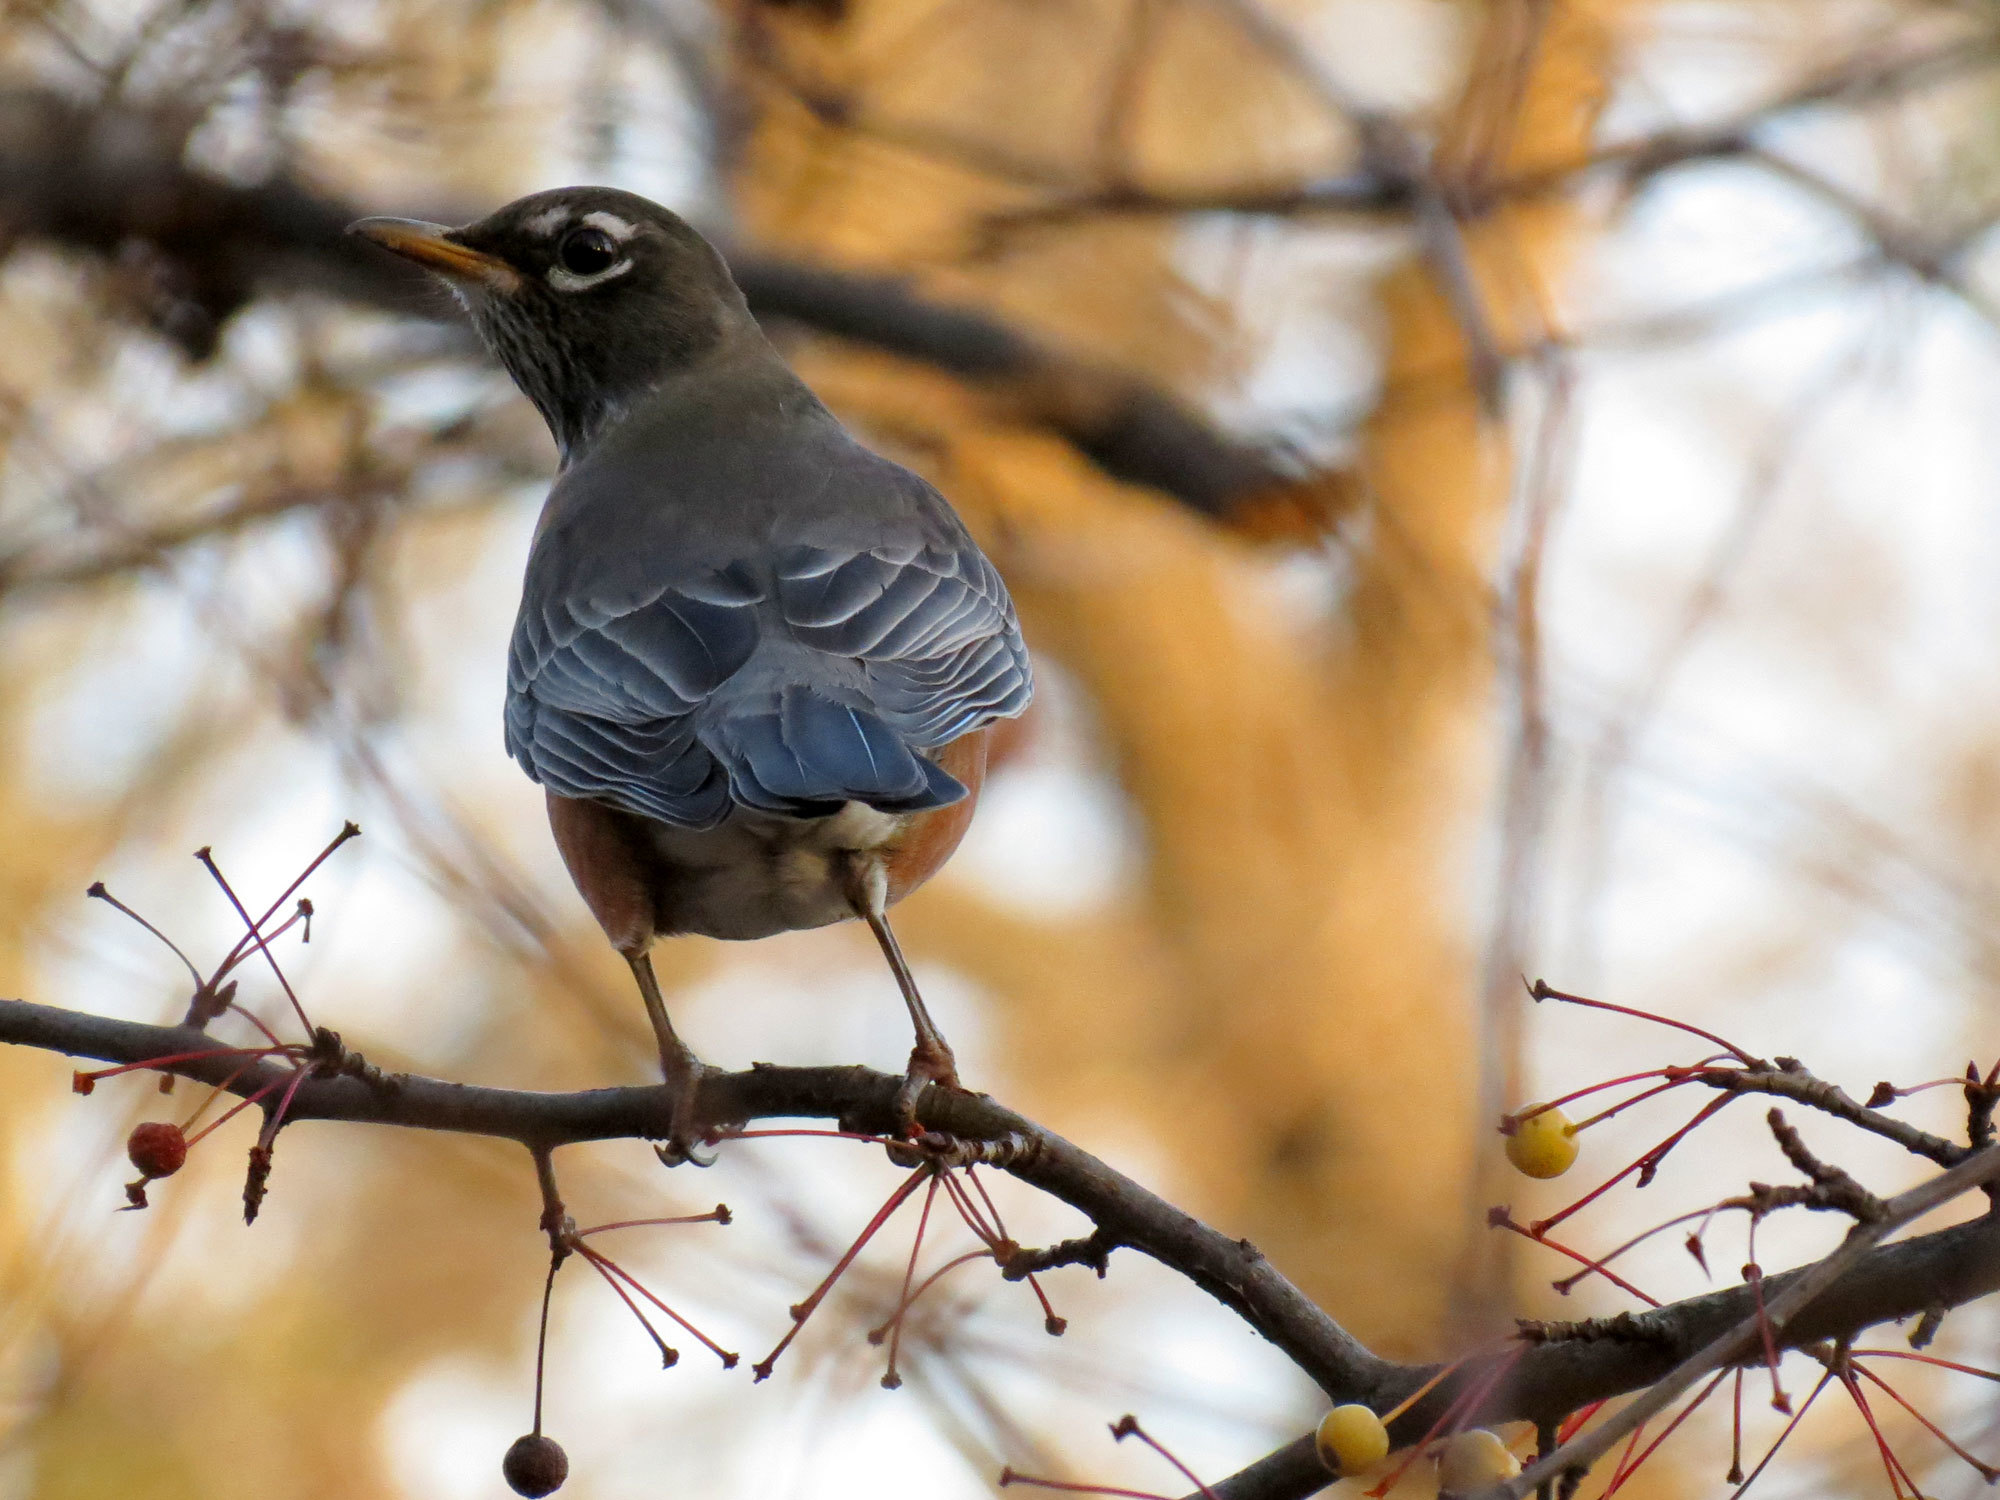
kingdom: Animalia
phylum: Chordata
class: Aves
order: Passeriformes
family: Turdidae
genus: Turdus
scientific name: Turdus migratorius
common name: American robin
